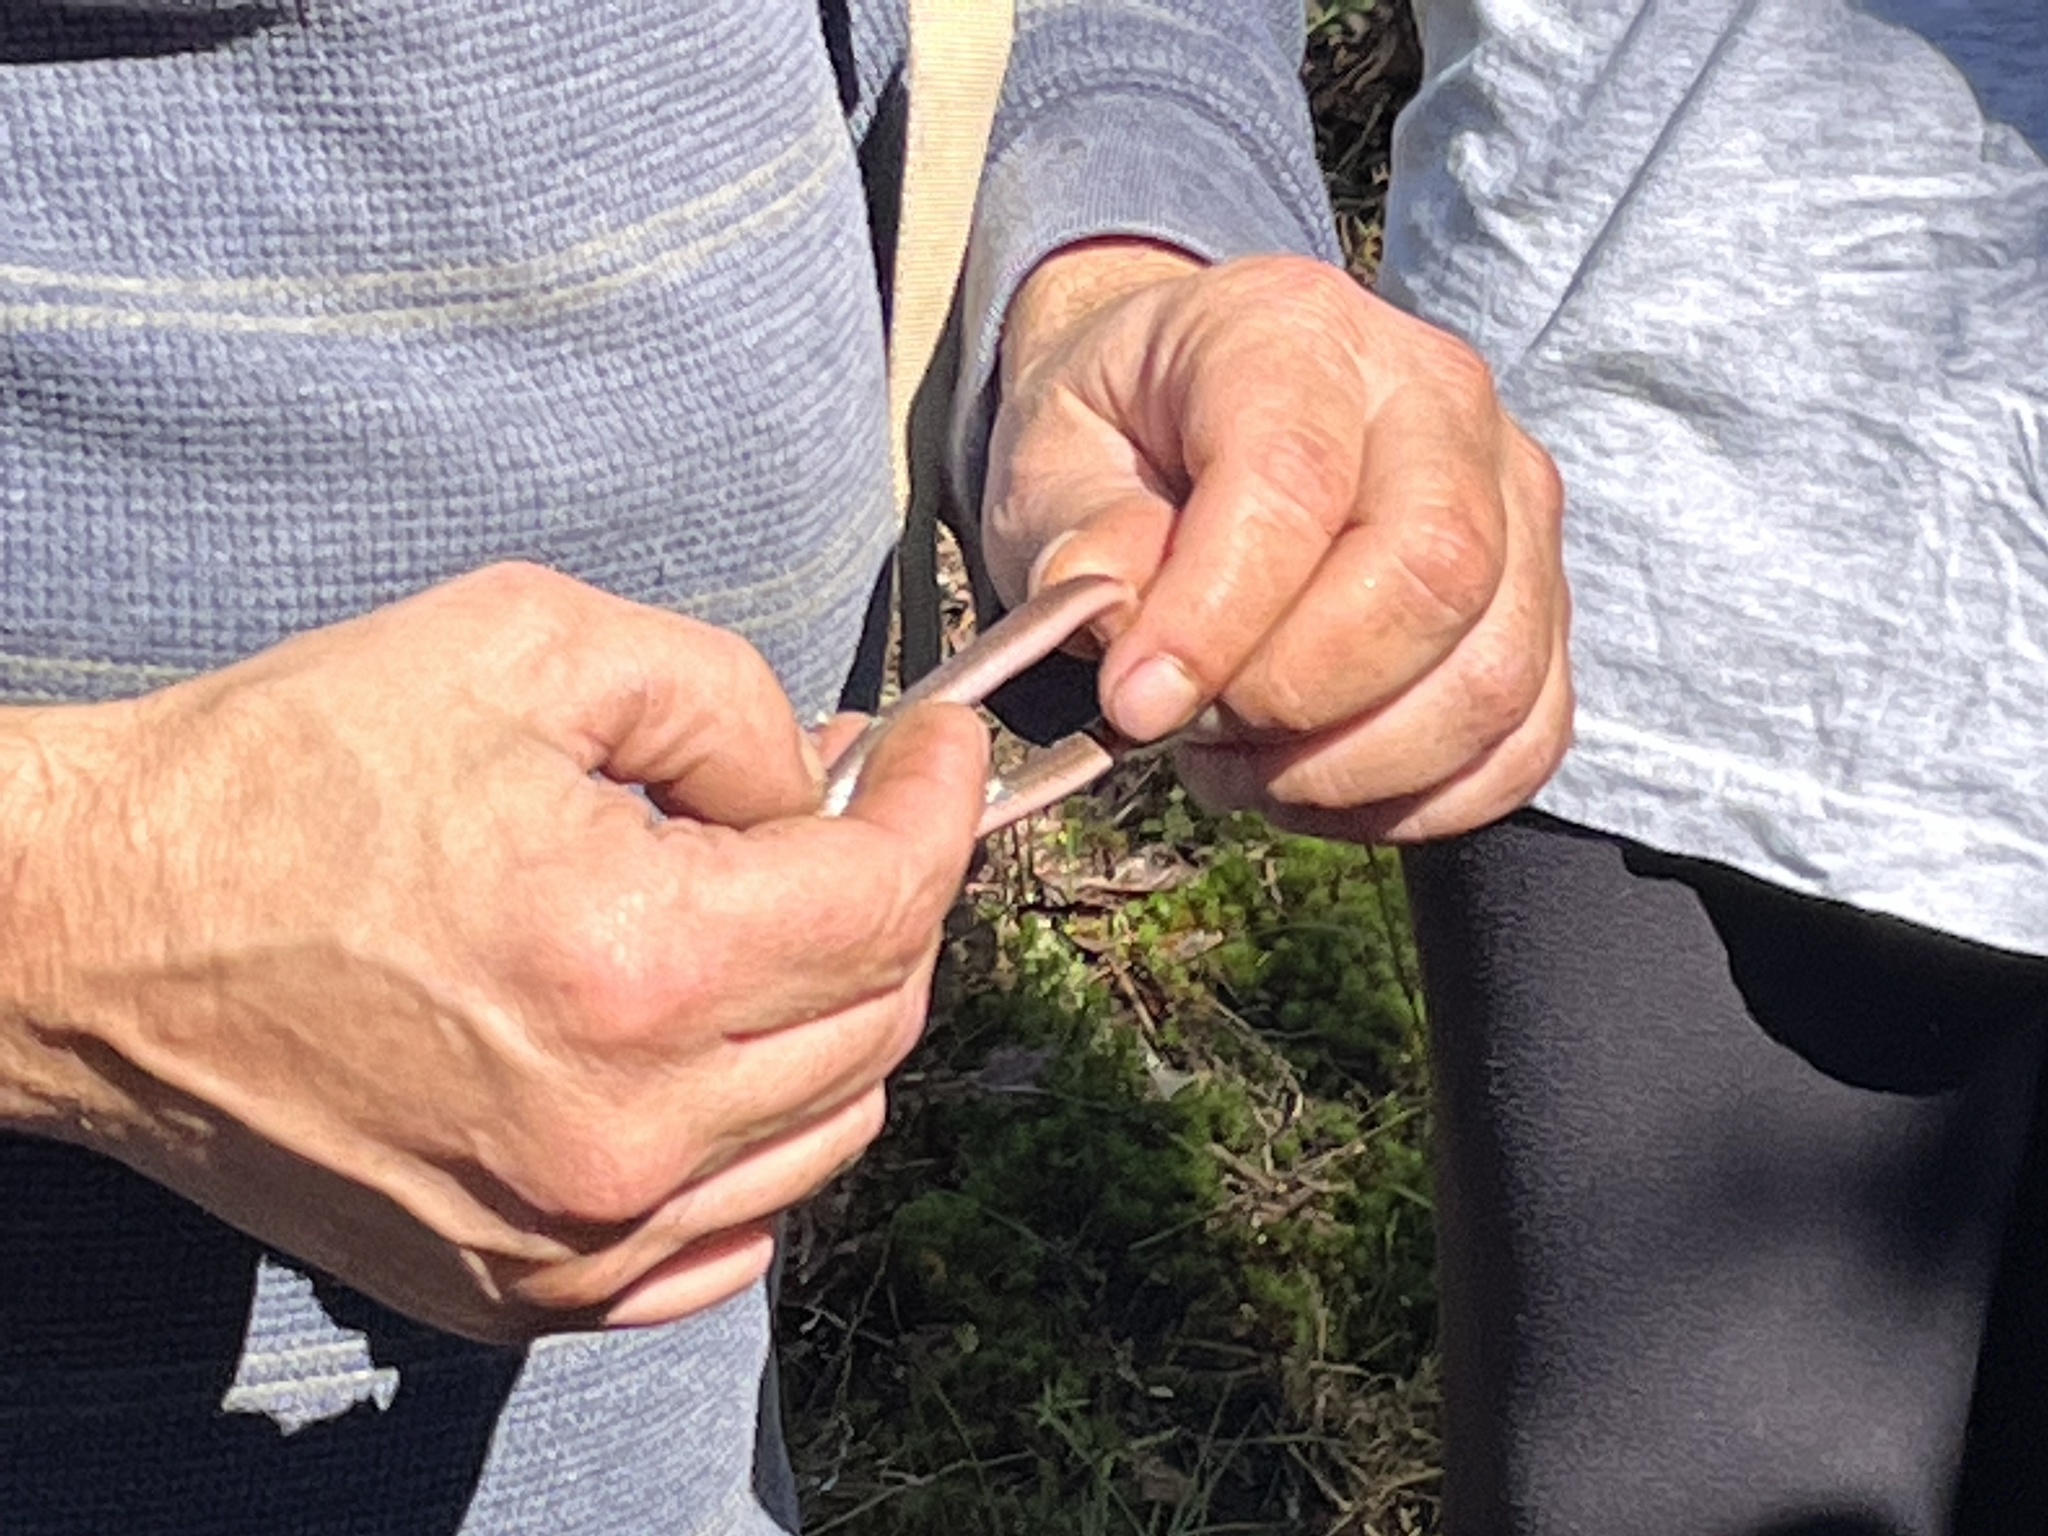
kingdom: Animalia
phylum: Chordata
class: Squamata
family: Colubridae
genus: Carphophis
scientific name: Carphophis amoenus
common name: Eastern worm snake
